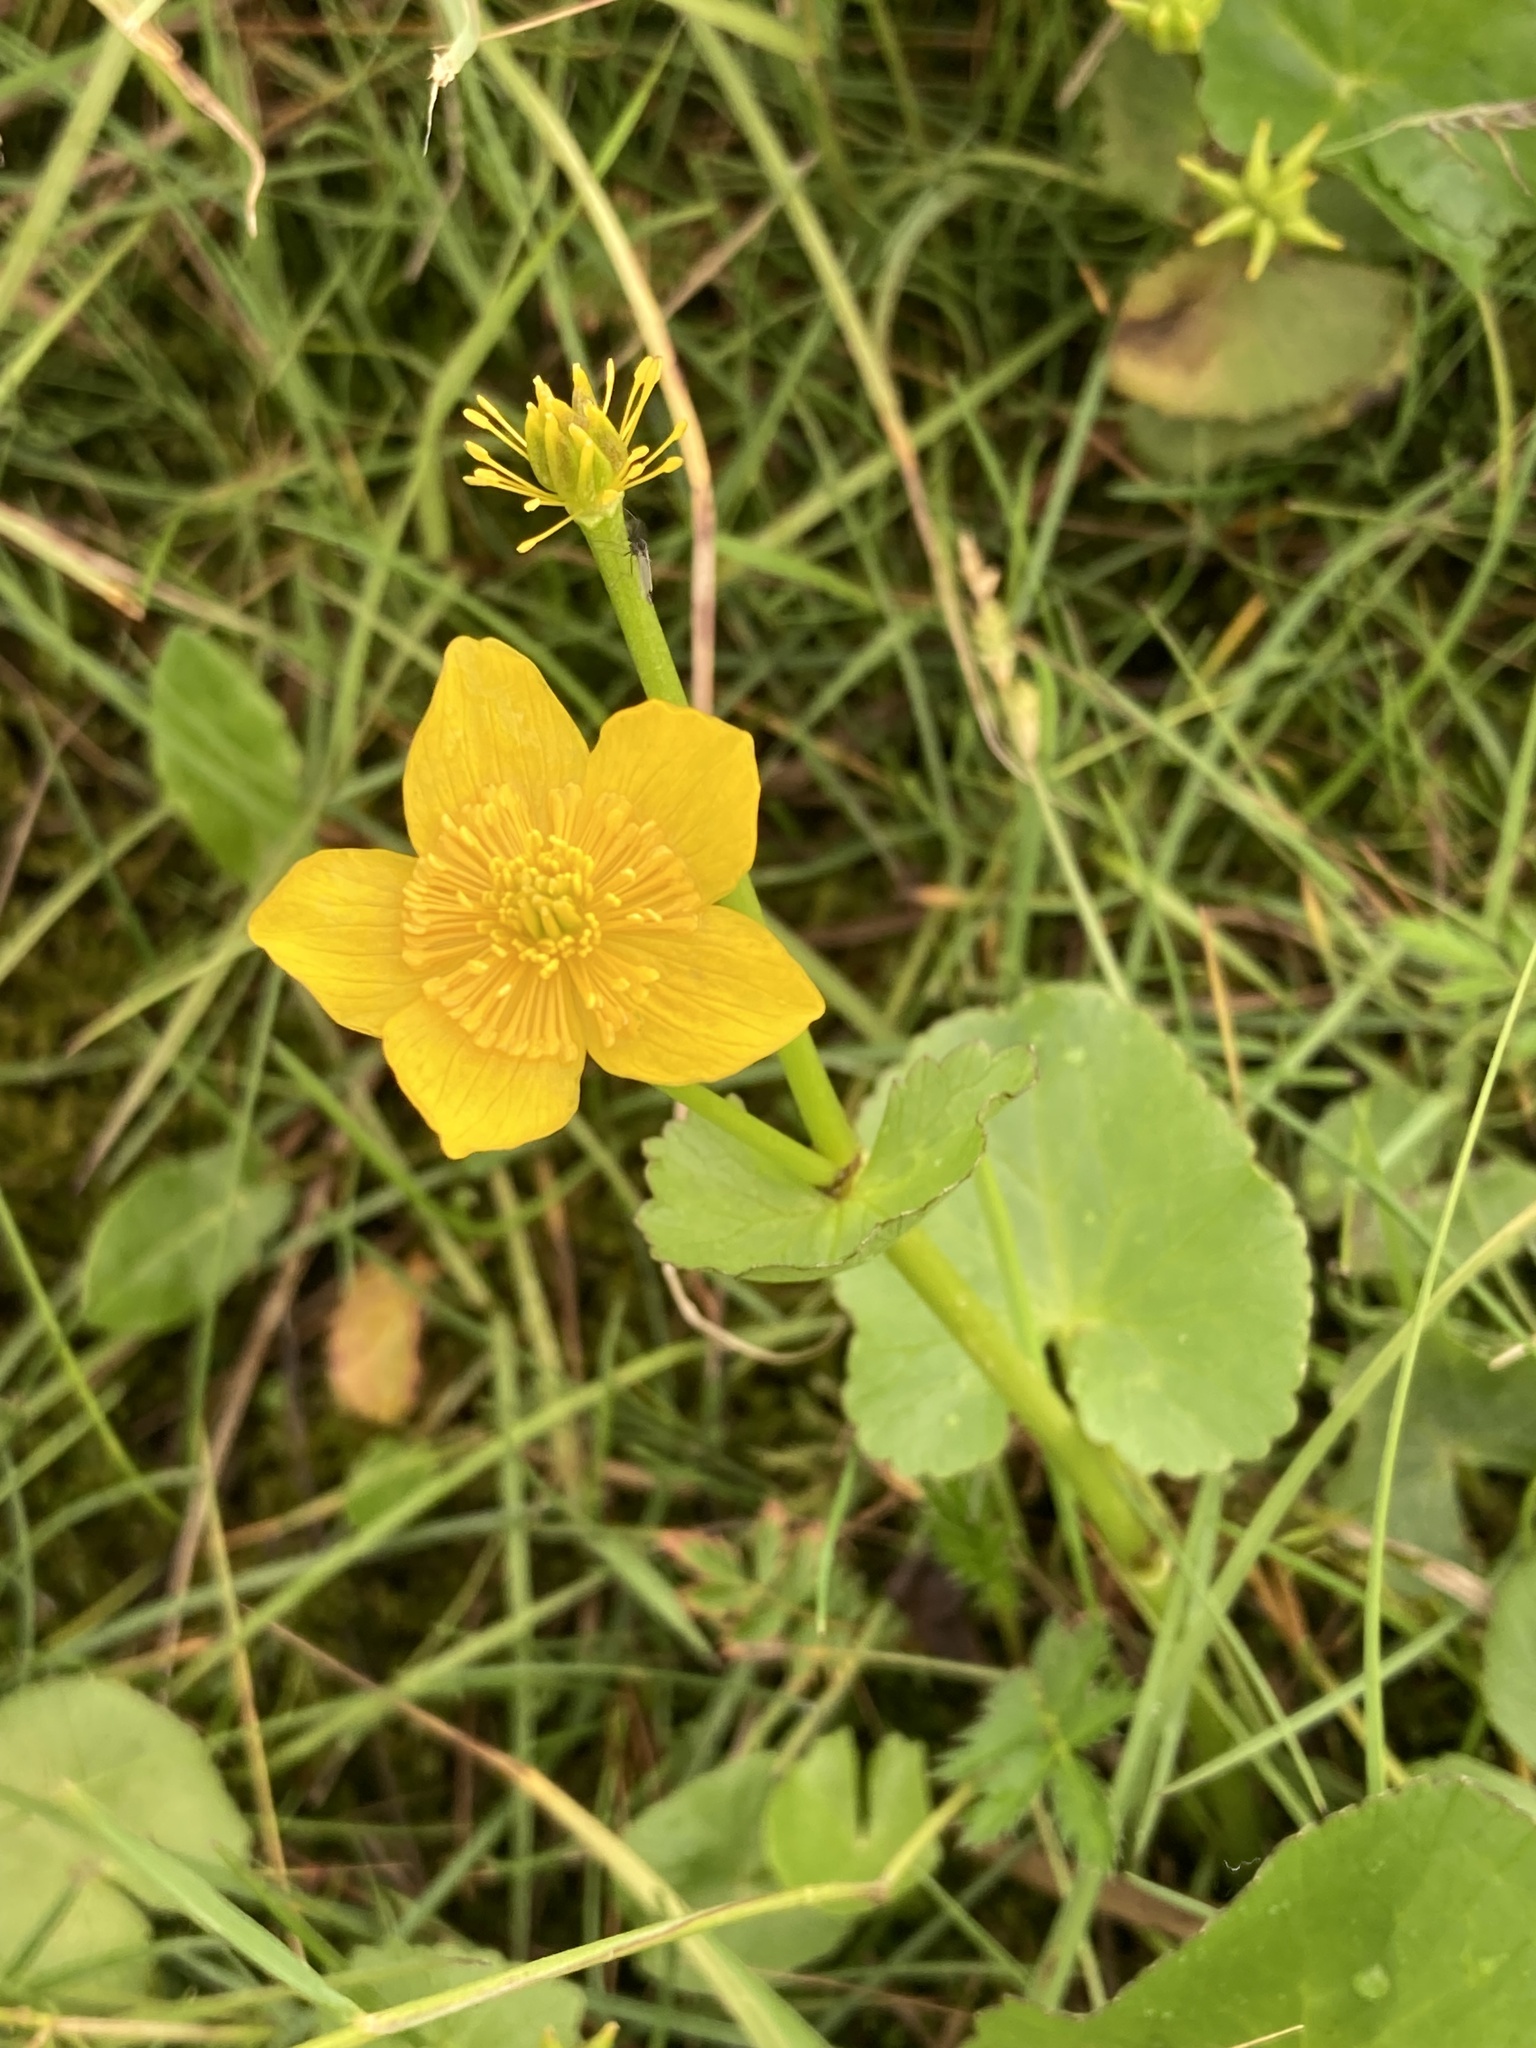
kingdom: Plantae
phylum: Tracheophyta
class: Magnoliopsida
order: Ranunculales
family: Ranunculaceae
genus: Caltha
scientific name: Caltha palustris
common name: Marsh marigold
